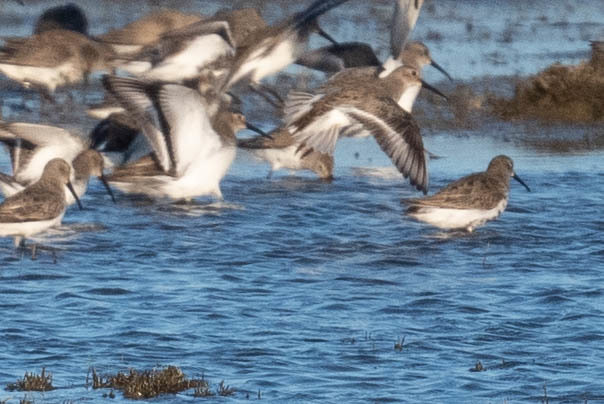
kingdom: Animalia
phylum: Chordata
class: Aves
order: Charadriiformes
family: Scolopacidae
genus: Calidris
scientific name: Calidris alpina
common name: Dunlin
